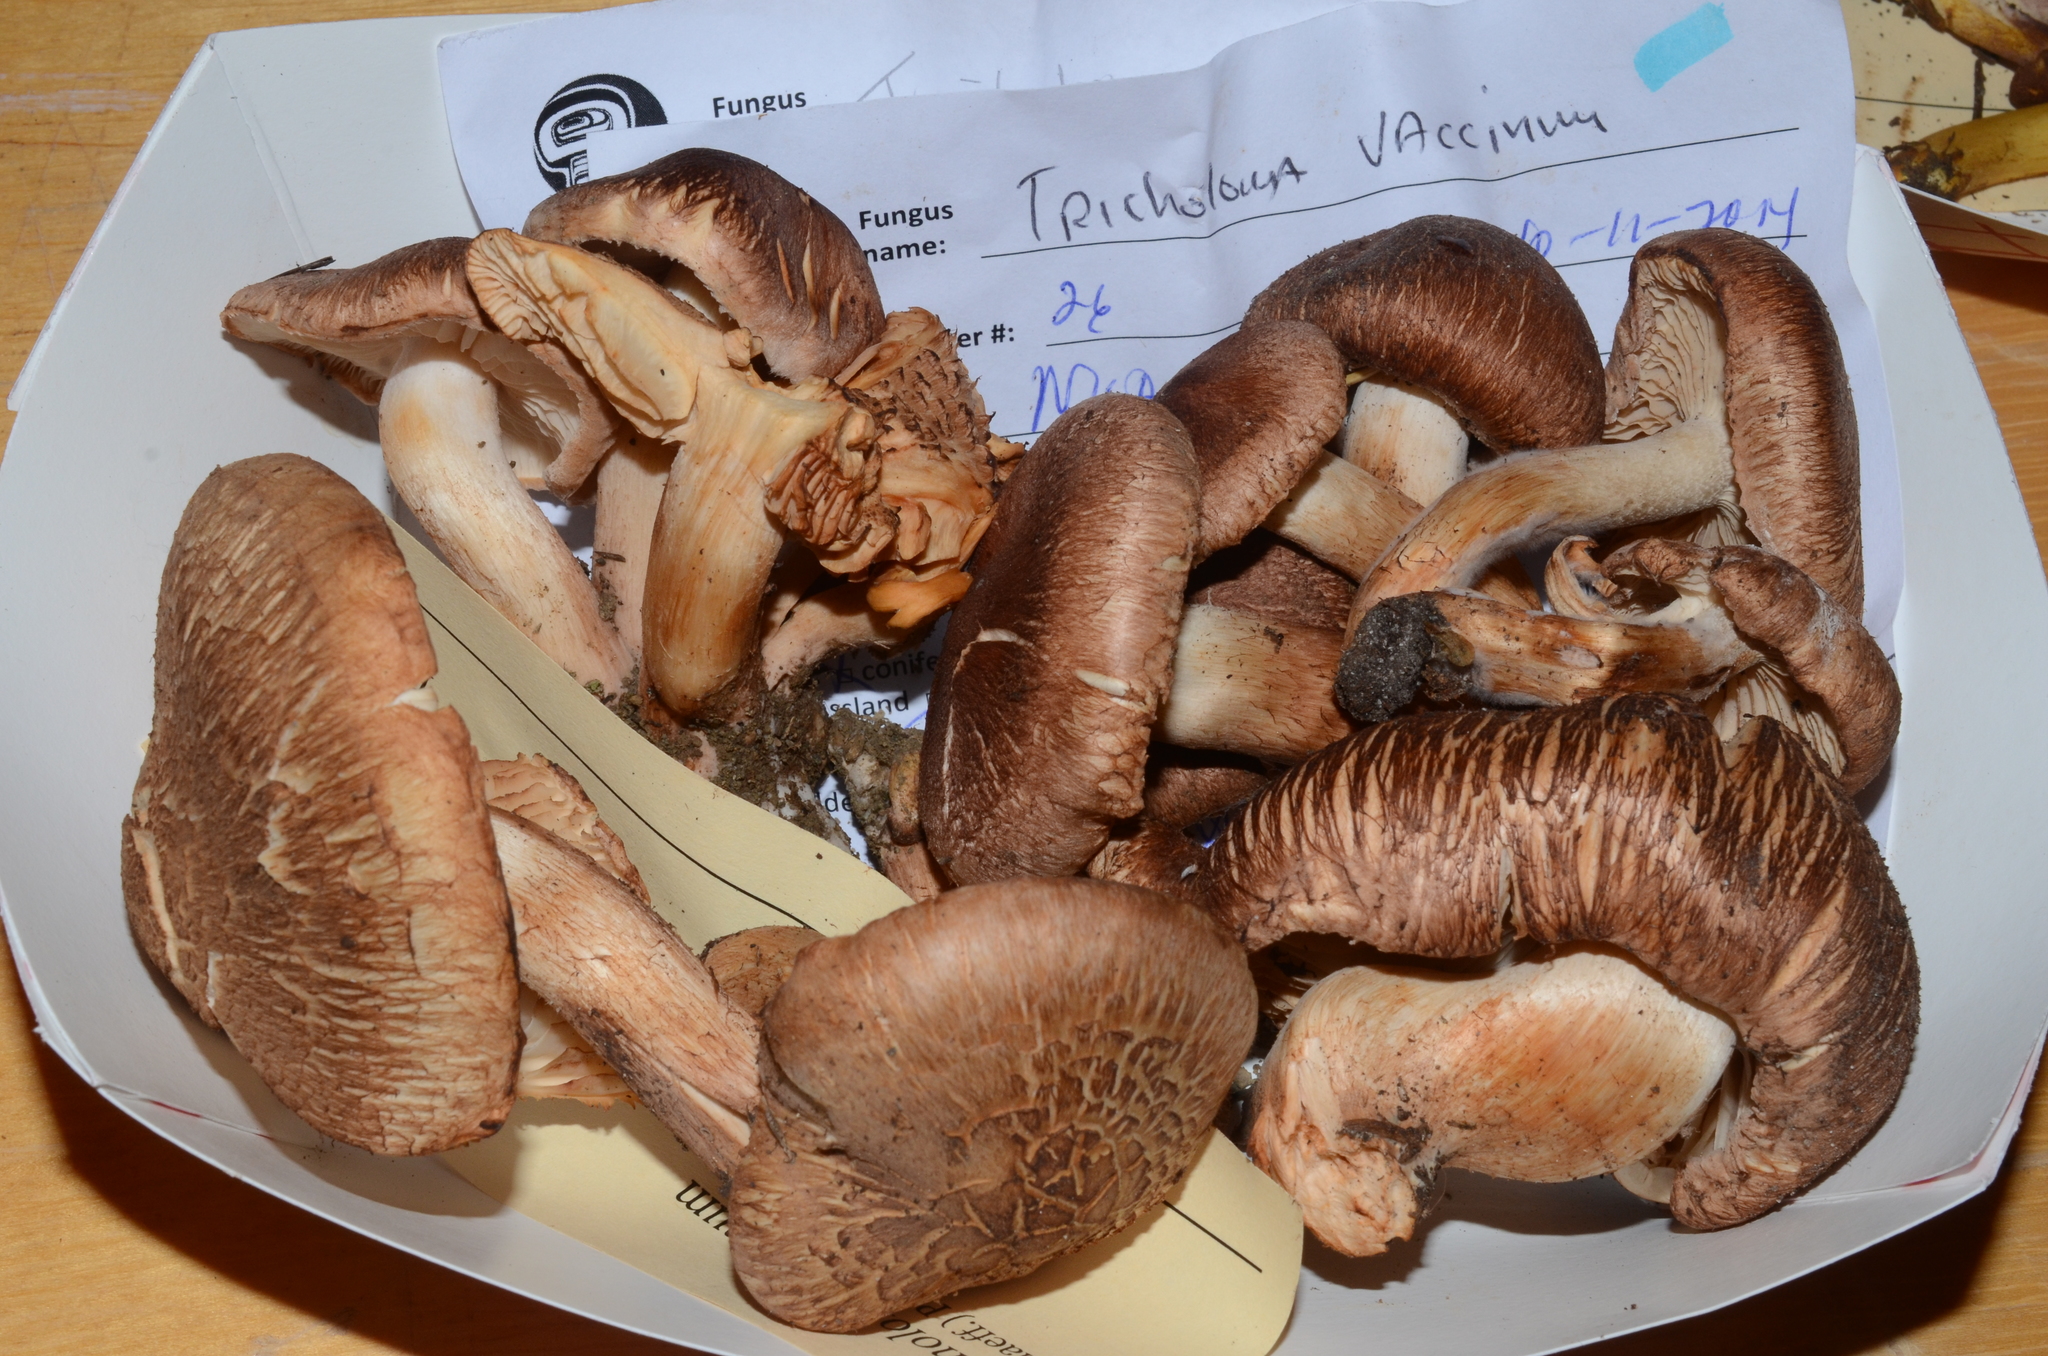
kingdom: Fungi
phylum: Basidiomycota
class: Agaricomycetes
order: Agaricales
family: Tricholomataceae
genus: Tricholoma
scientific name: Tricholoma vaccinum
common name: Scaly knight
